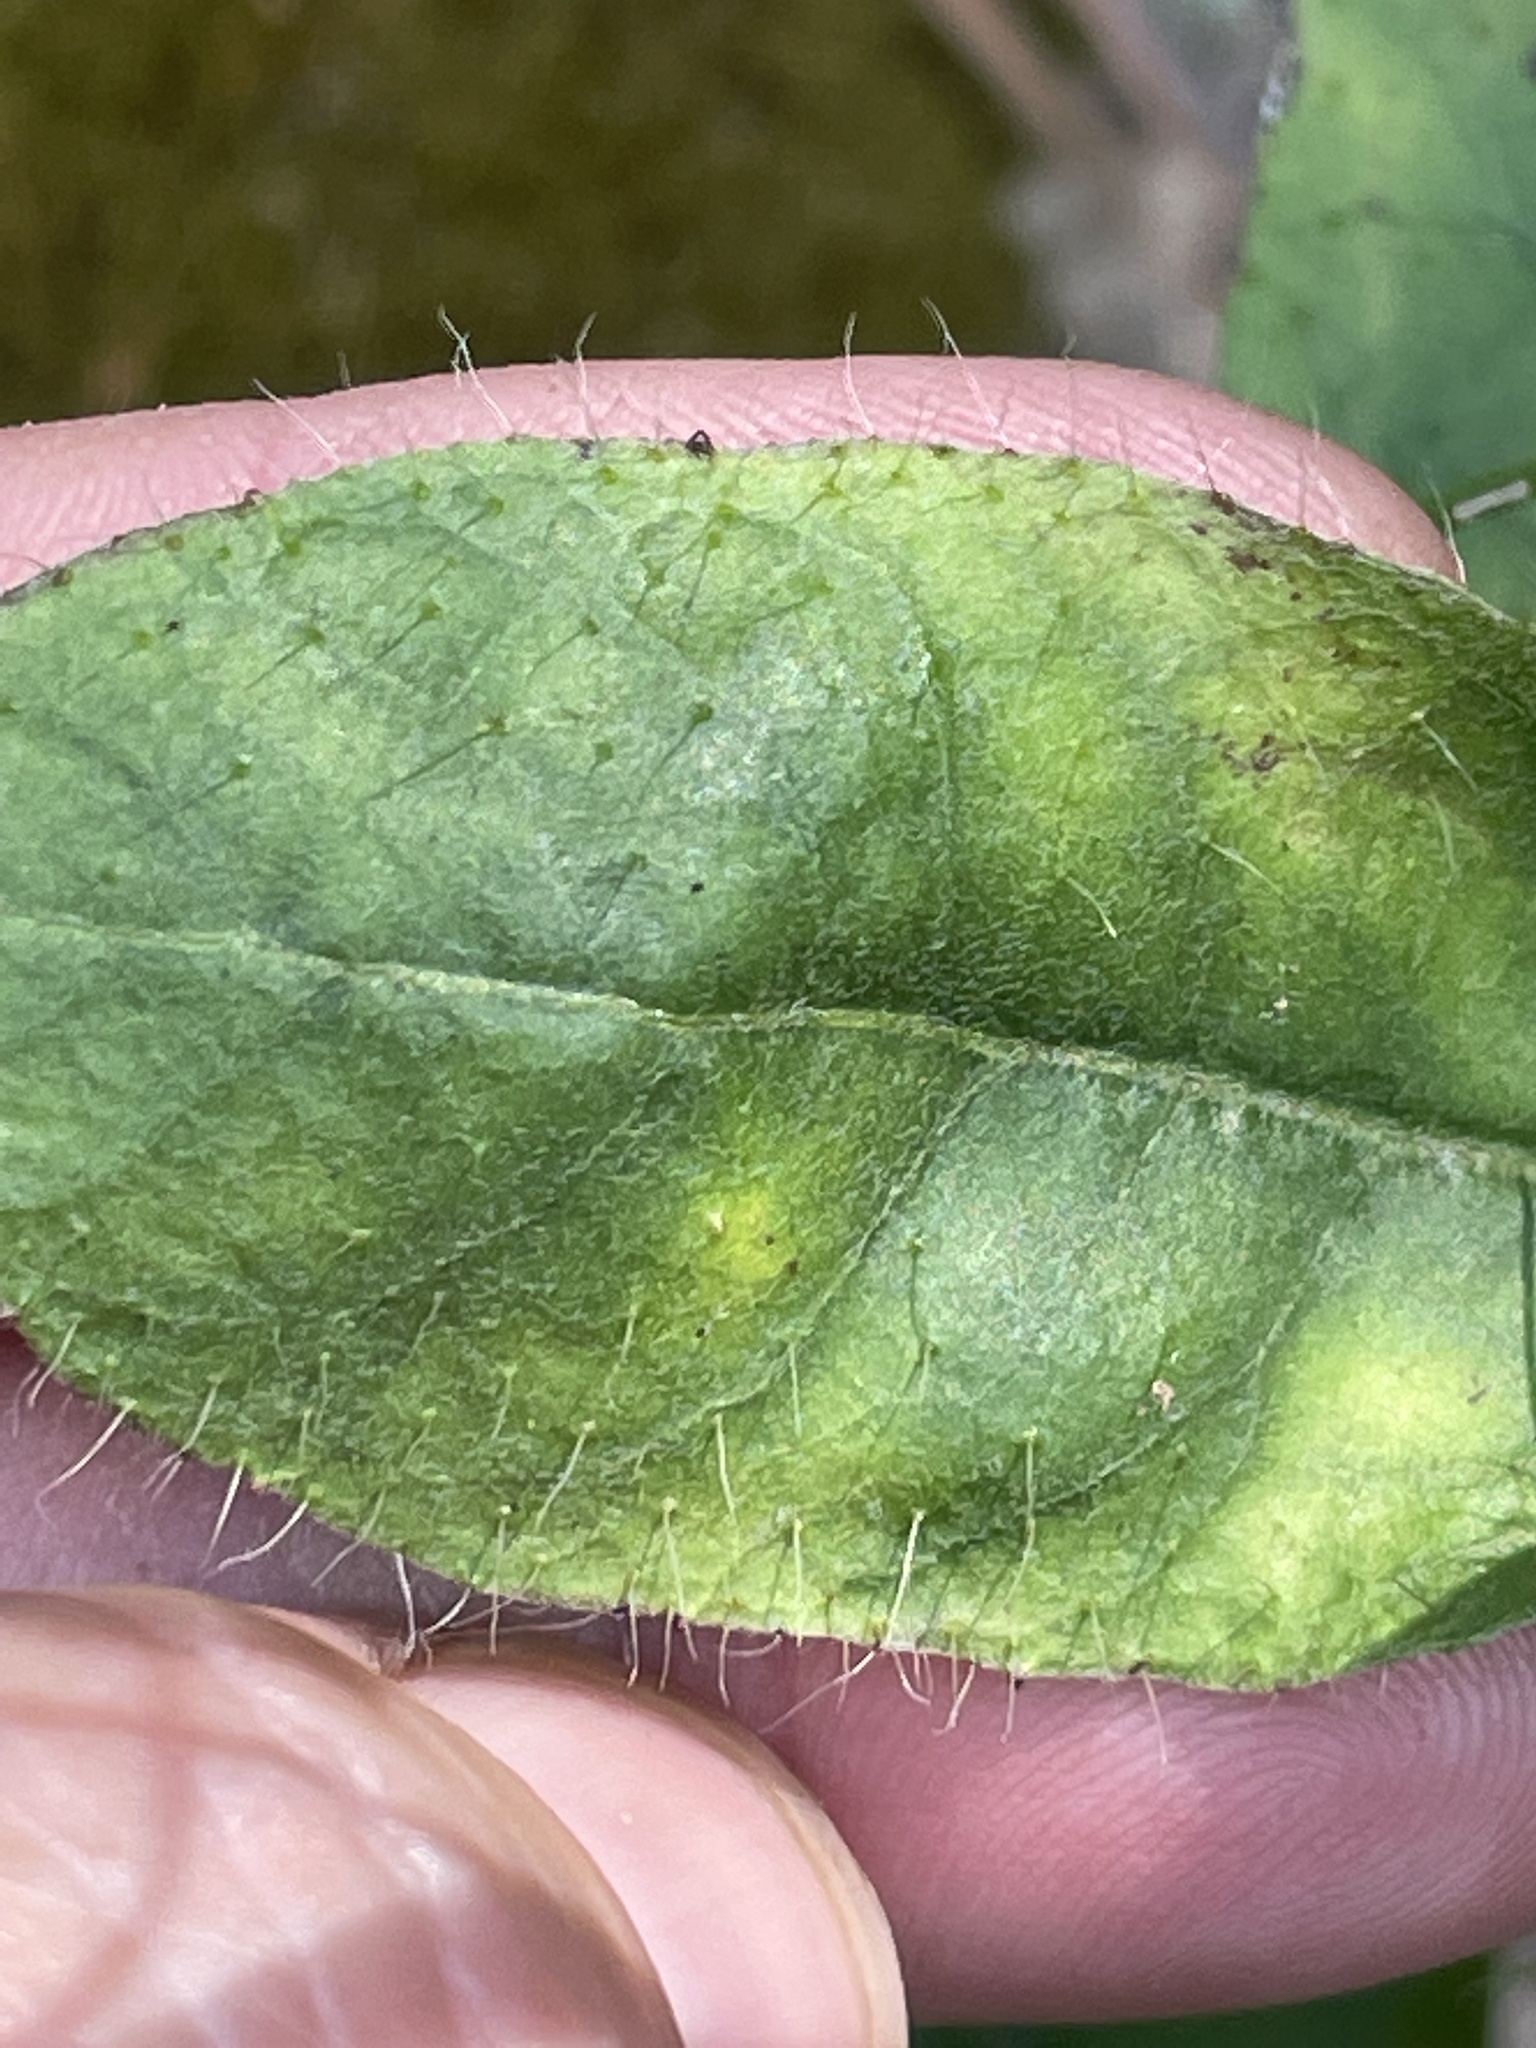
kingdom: Plantae
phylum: Tracheophyta
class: Magnoliopsida
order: Asterales
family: Asteraceae
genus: Hieracium
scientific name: Hieracium gronovii
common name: Beaked hawkweed
